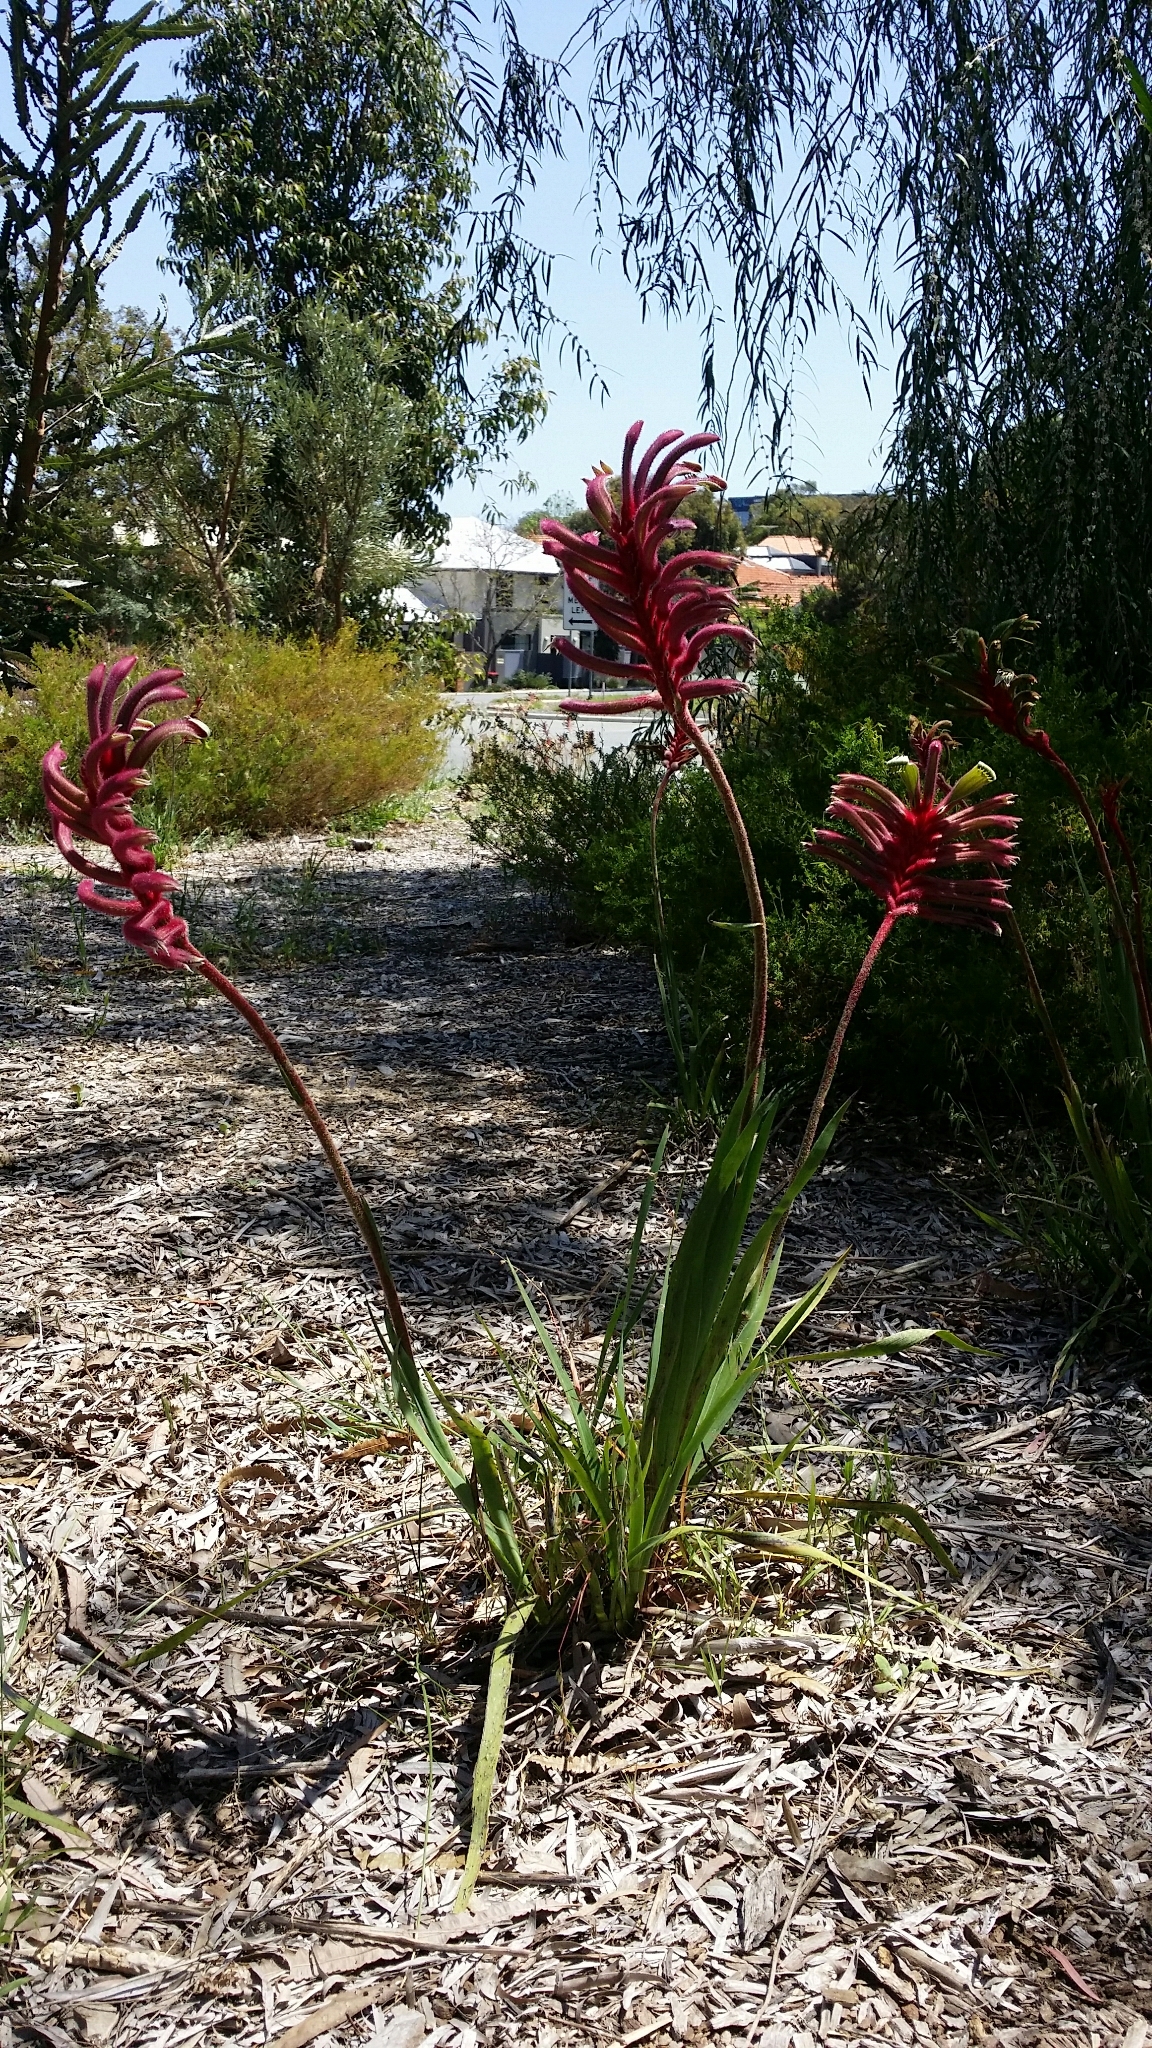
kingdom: Plantae
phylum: Tracheophyta
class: Liliopsida
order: Commelinales
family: Haemodoraceae
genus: Anigozanthos
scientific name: Anigozanthos manglesii
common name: Mangles's kangaroo-paw
